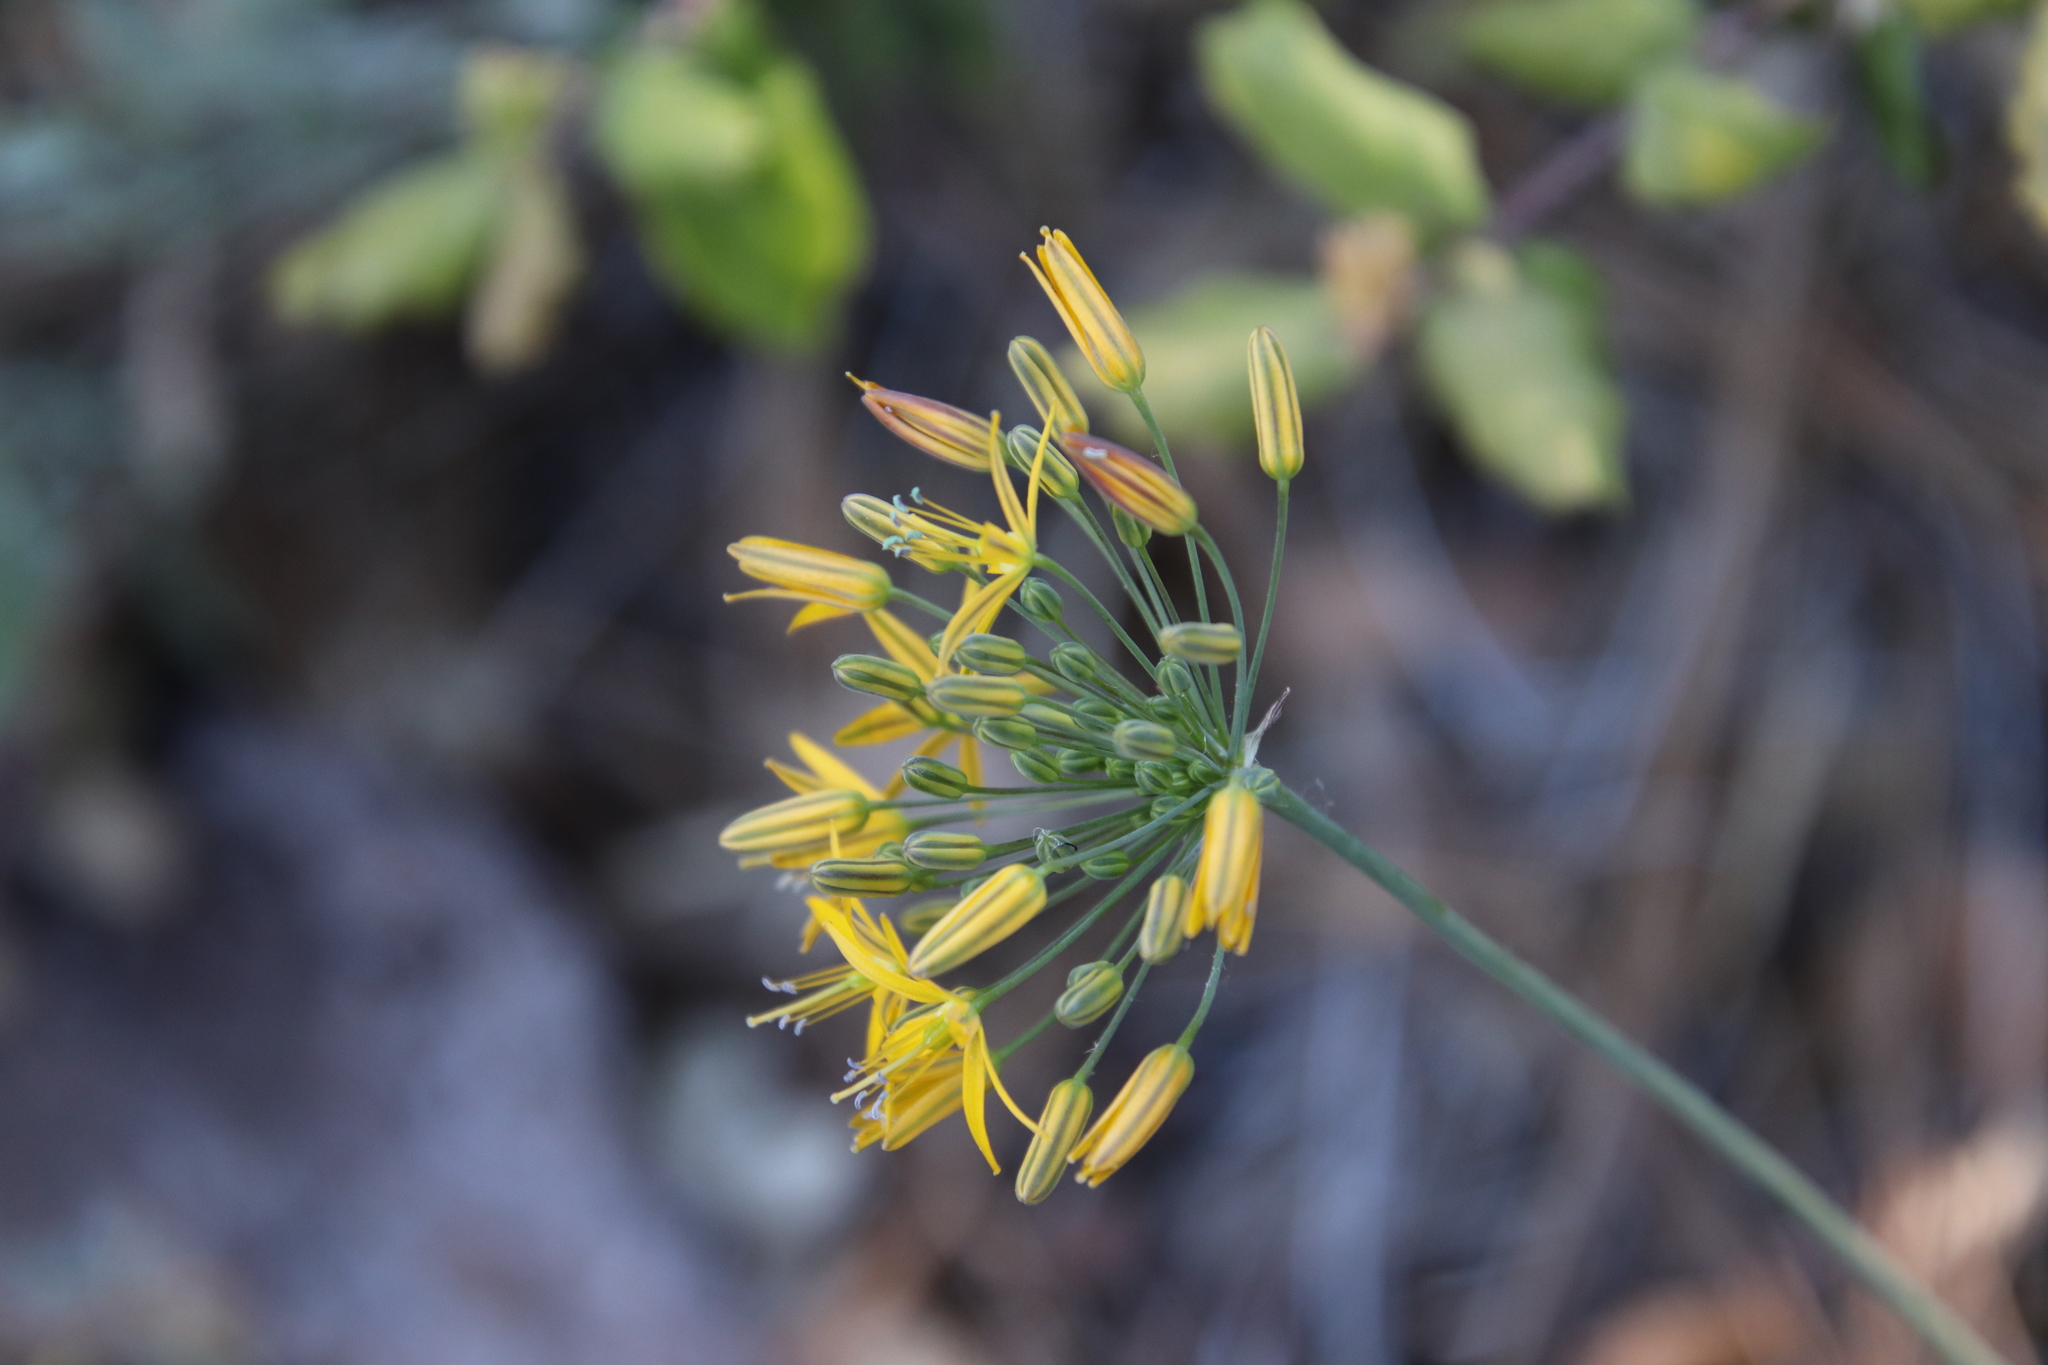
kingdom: Plantae
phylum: Tracheophyta
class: Liliopsida
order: Asparagales
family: Asparagaceae
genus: Bloomeria
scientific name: Bloomeria crocea
